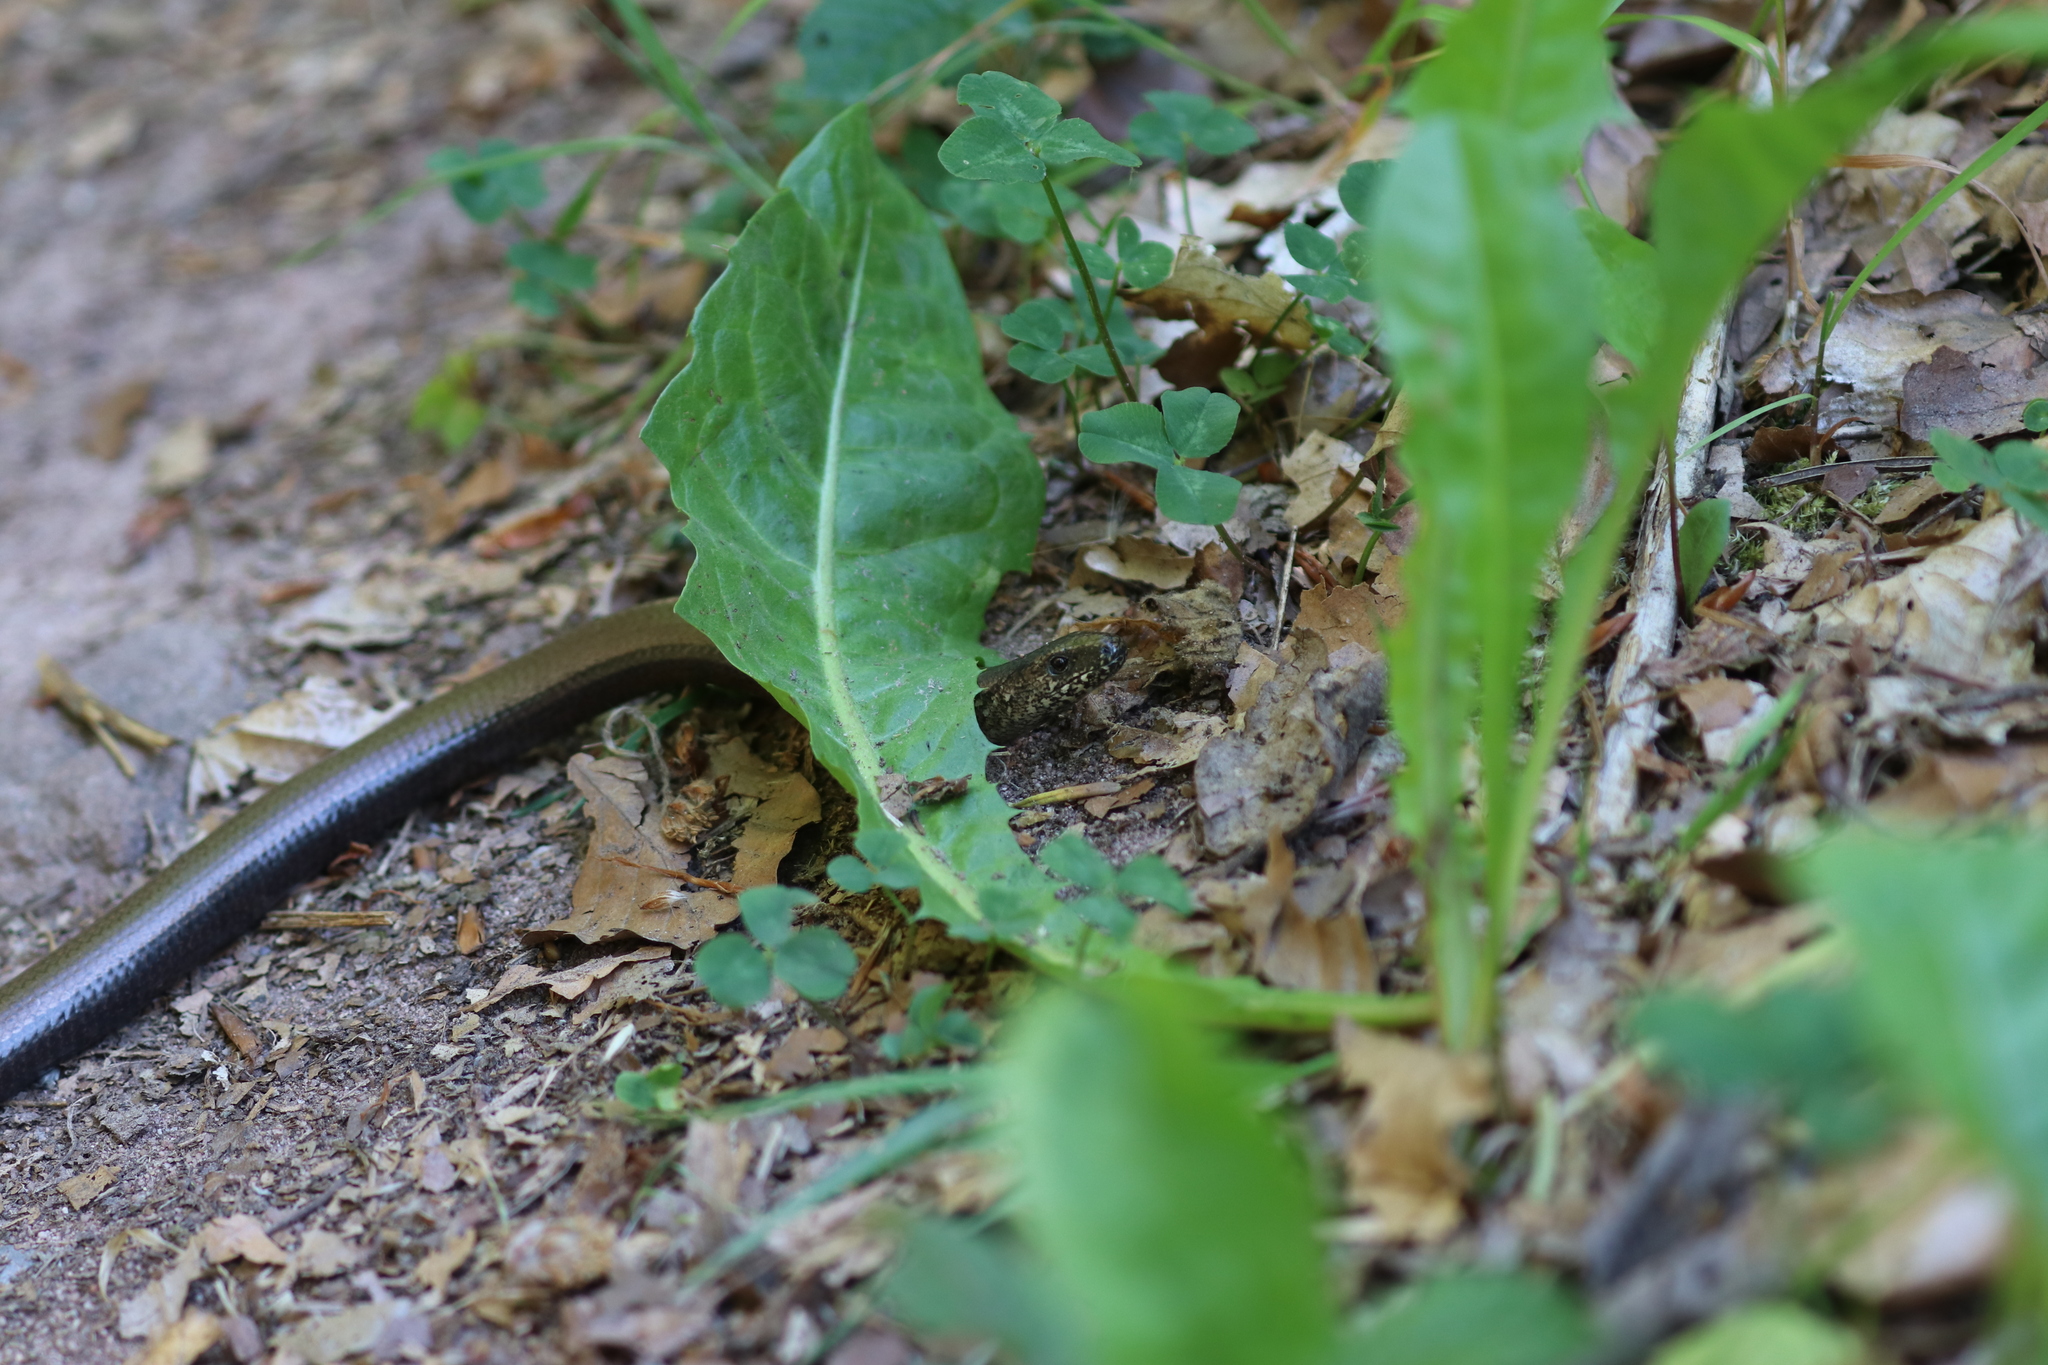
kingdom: Animalia
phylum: Chordata
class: Squamata
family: Anguidae
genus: Anguis
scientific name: Anguis fragilis
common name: Slow worm
